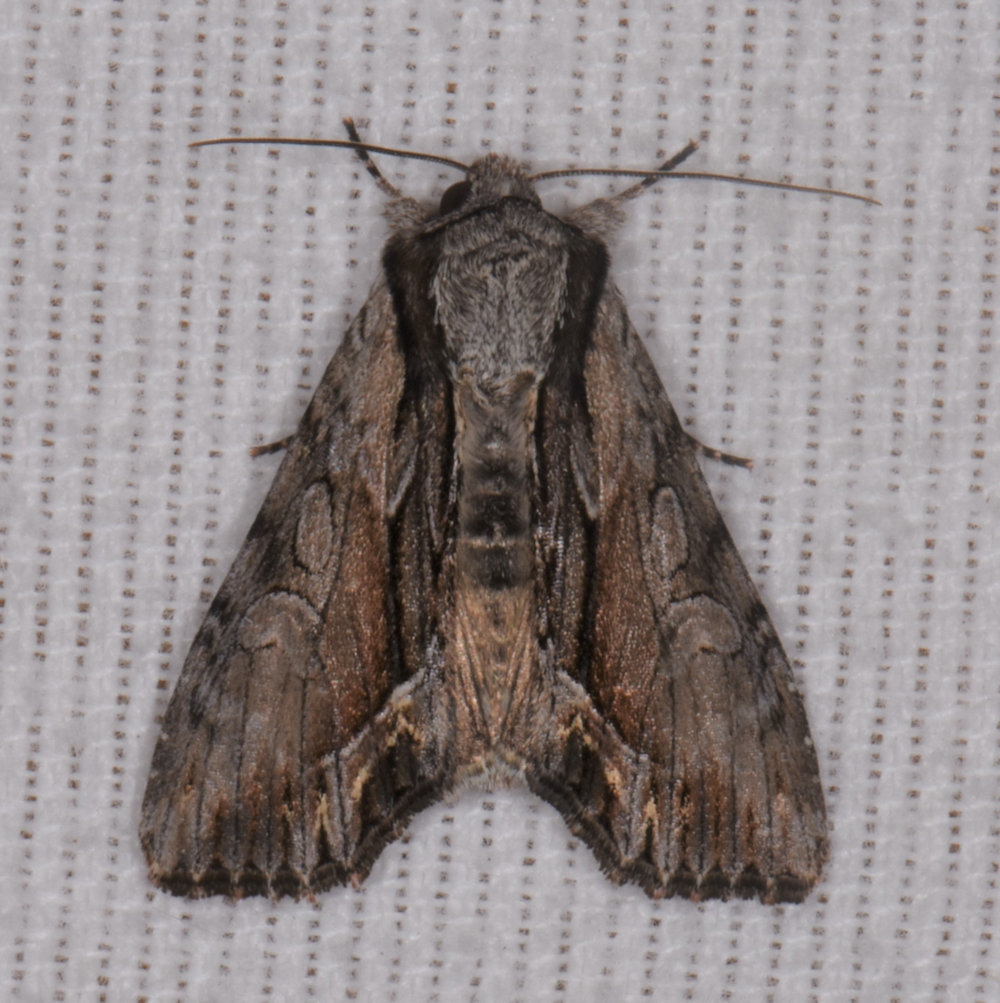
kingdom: Animalia
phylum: Arthropoda
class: Insecta
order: Lepidoptera
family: Noctuidae
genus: Hyppa
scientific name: Hyppa xylinoides
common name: Common hyppa moth
